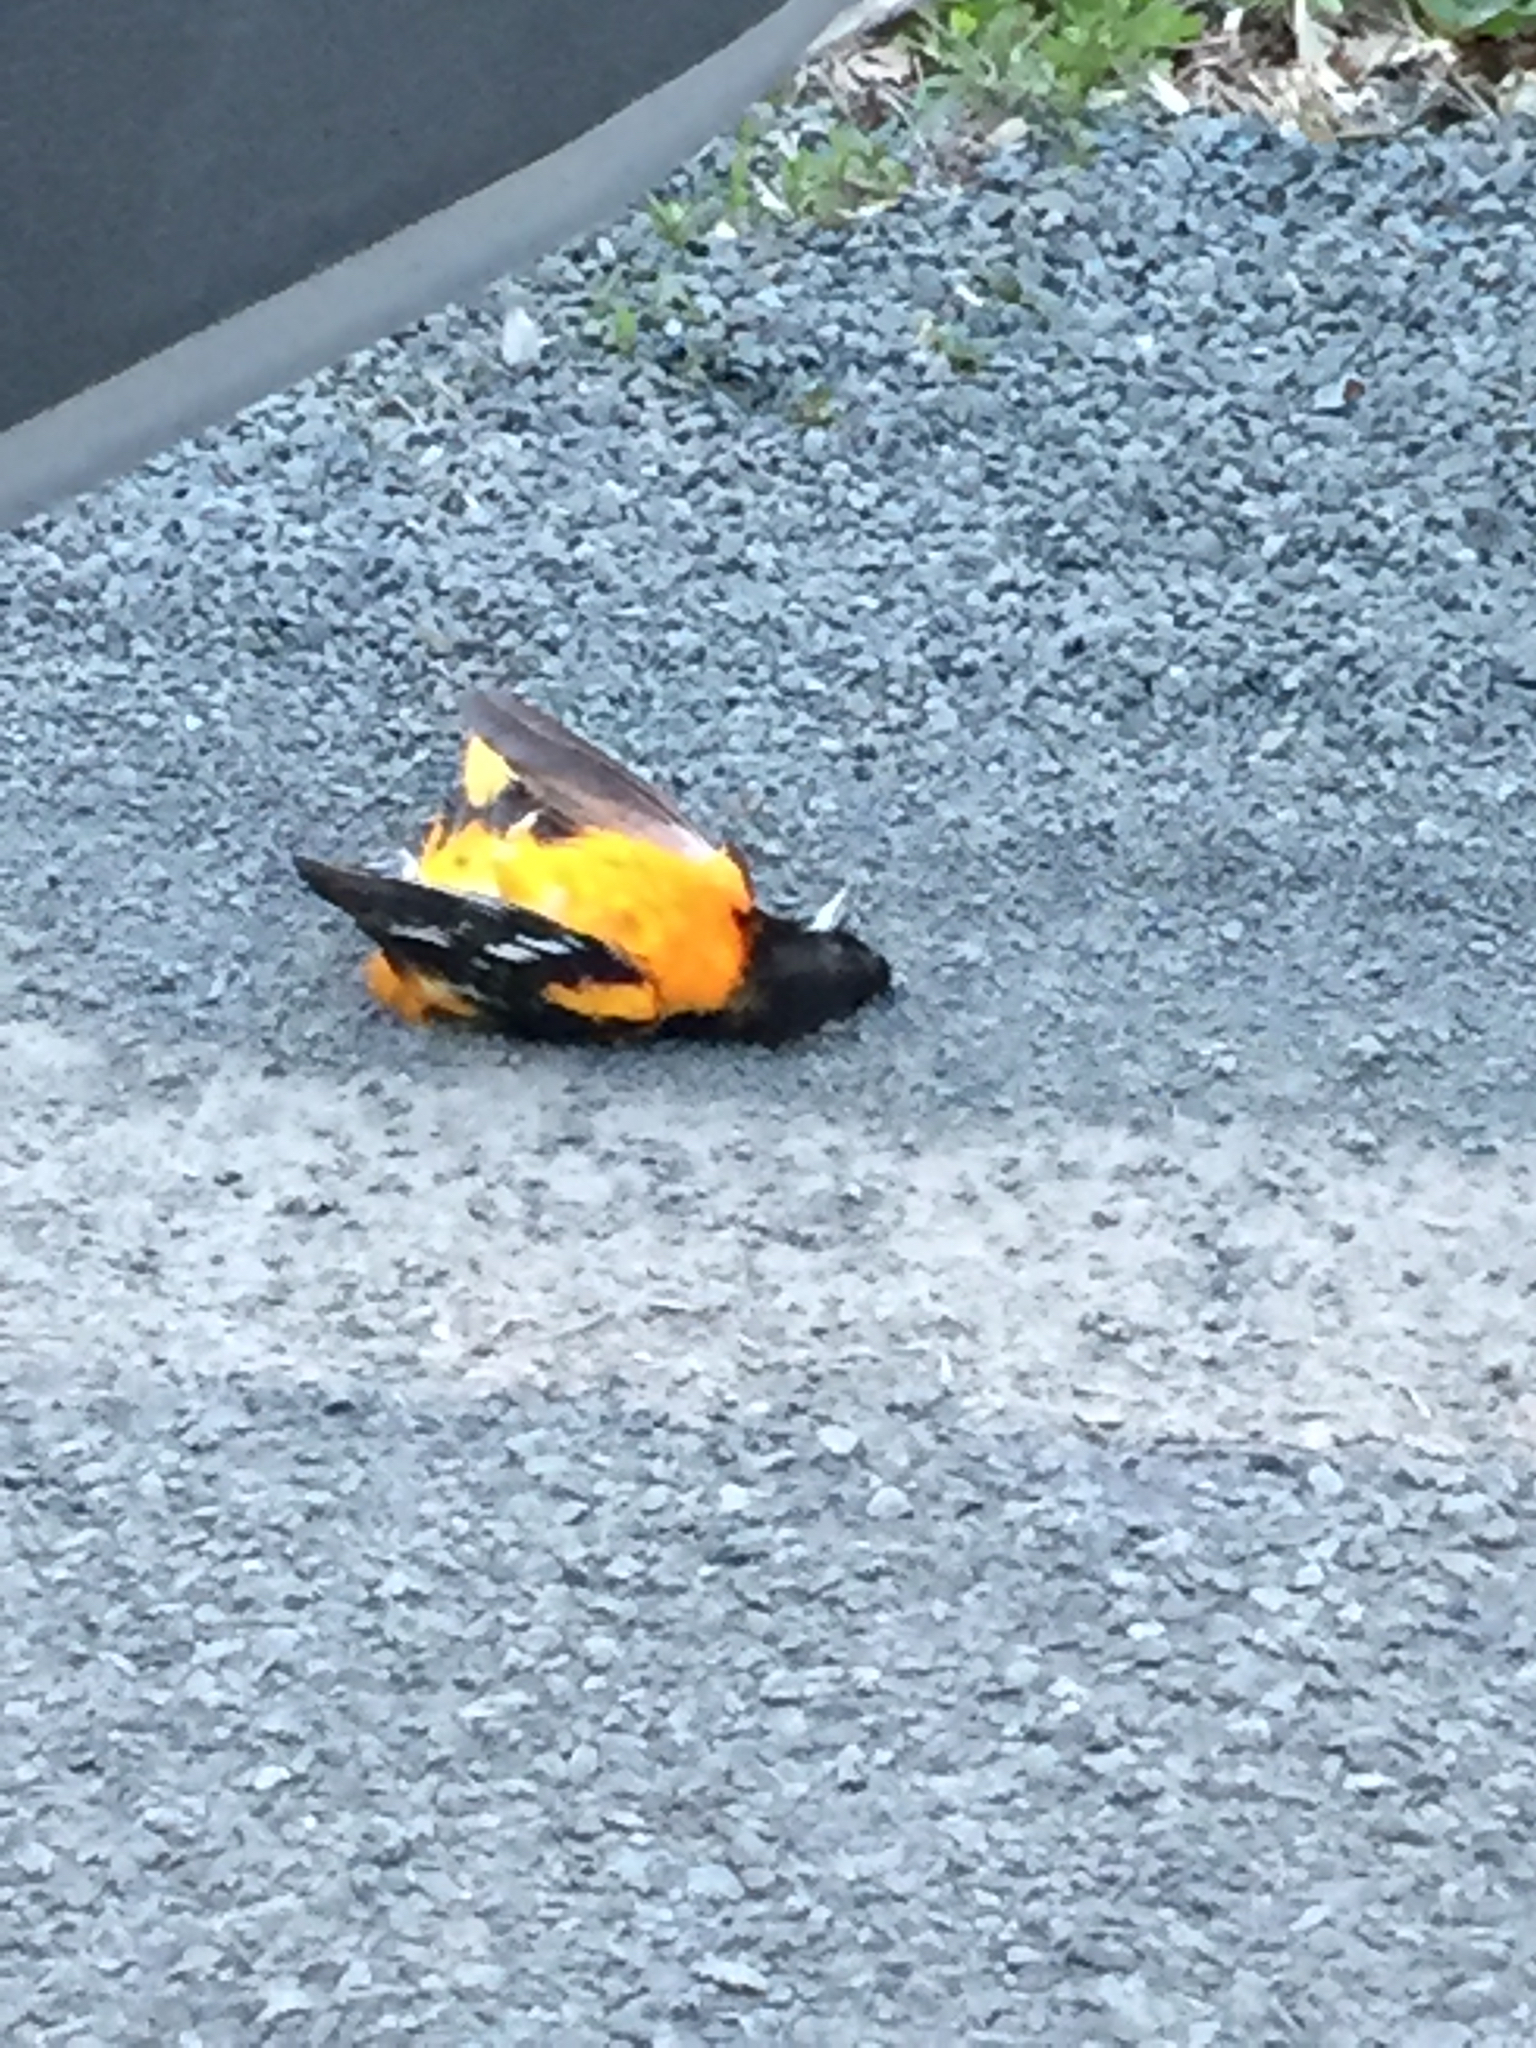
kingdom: Animalia
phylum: Chordata
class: Aves
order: Passeriformes
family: Icteridae
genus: Icterus
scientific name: Icterus galbula
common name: Baltimore oriole
